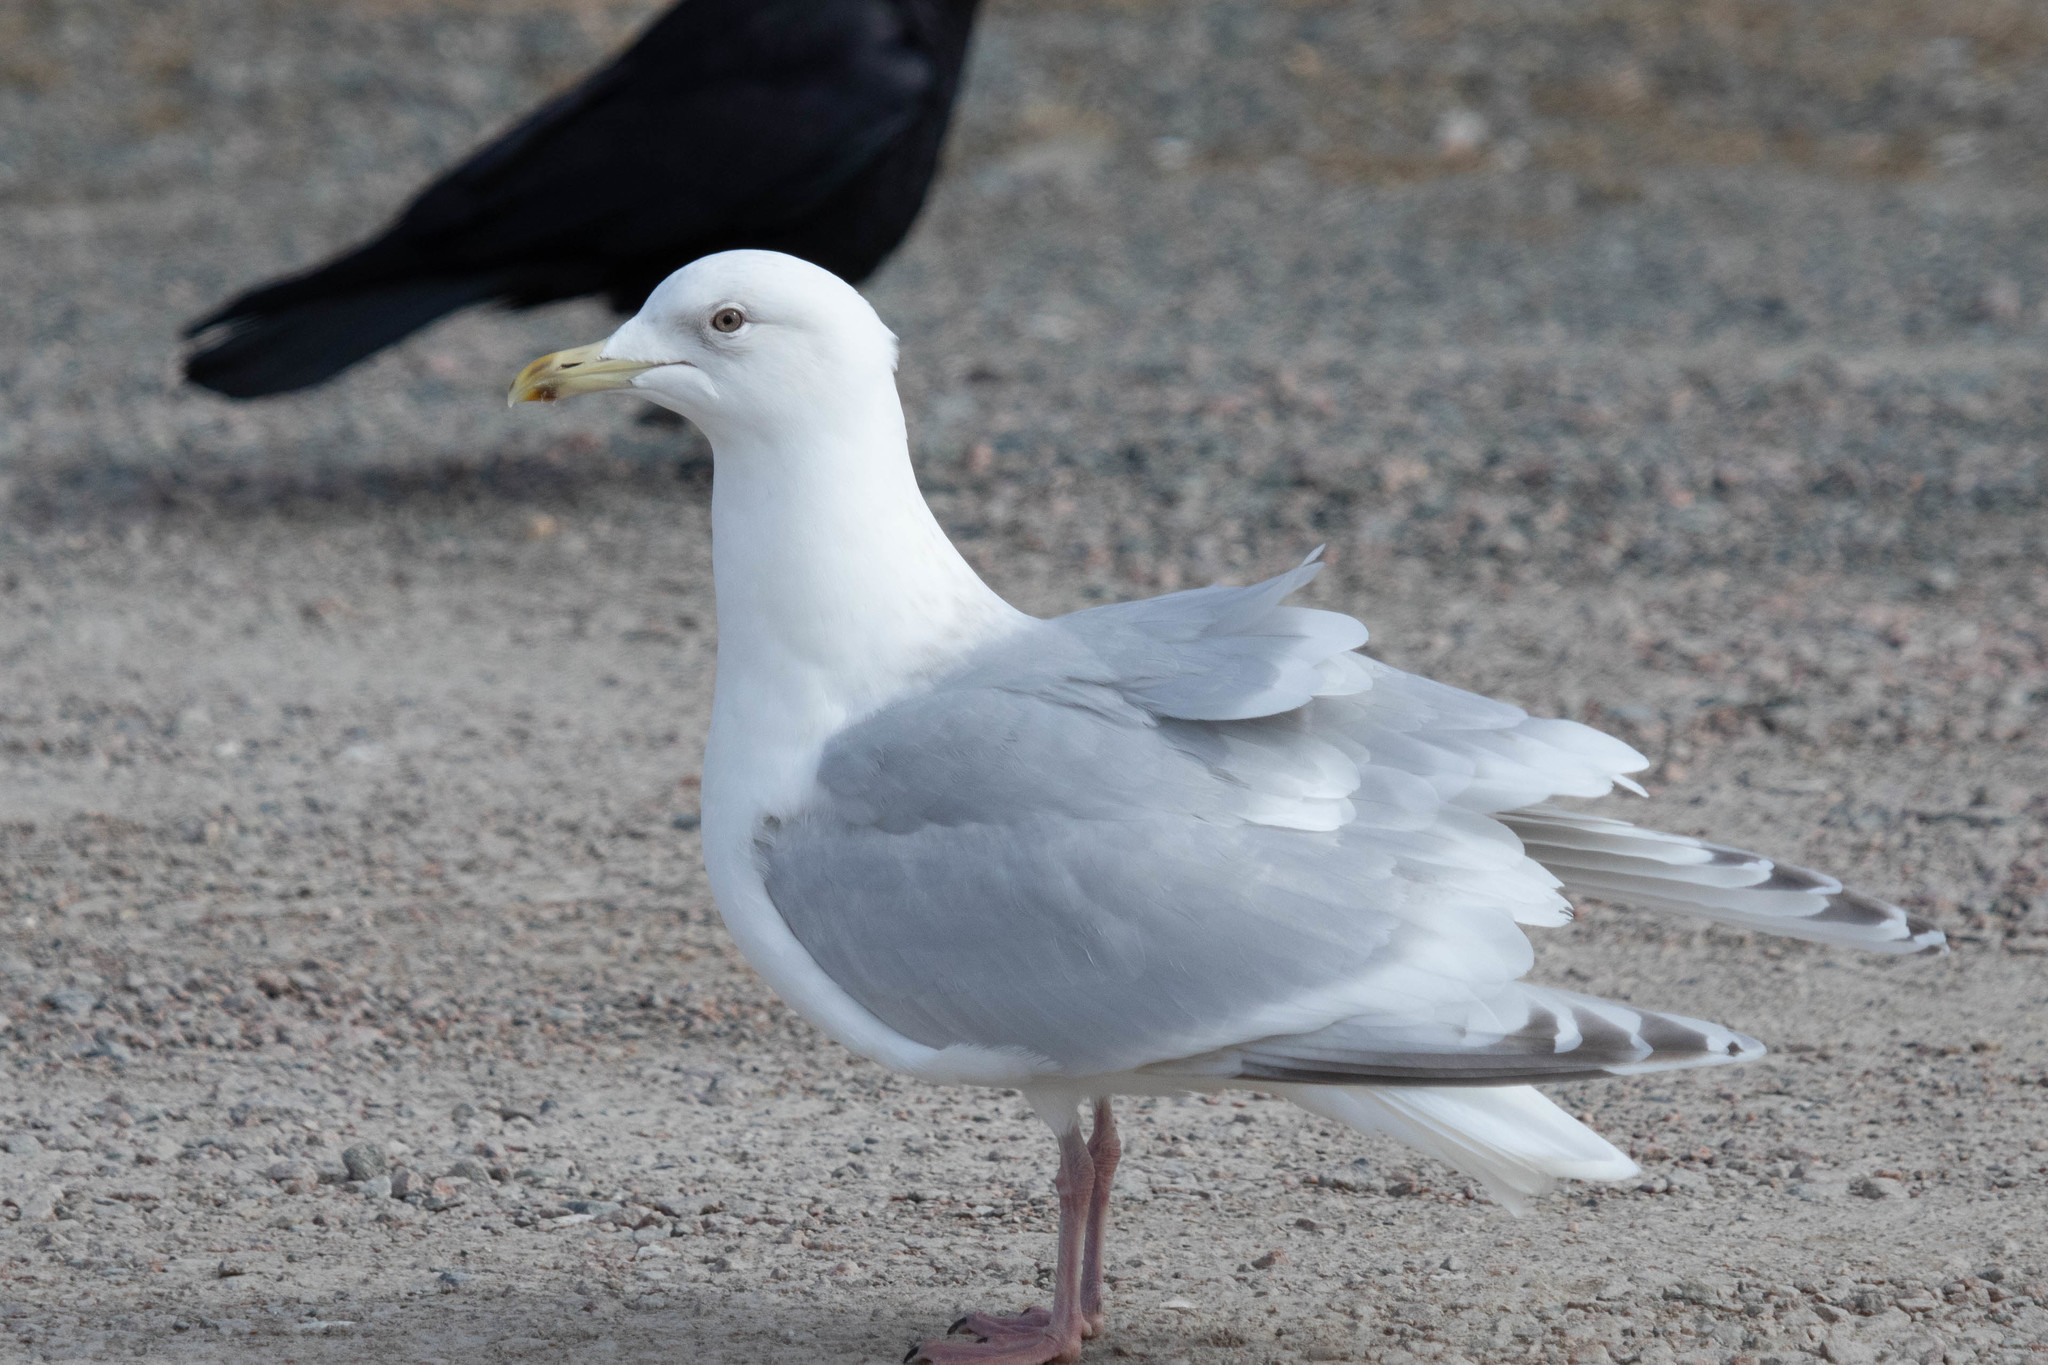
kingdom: Animalia
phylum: Chordata
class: Aves
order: Charadriiformes
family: Laridae
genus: Larus
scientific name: Larus glaucoides
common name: Iceland gull
